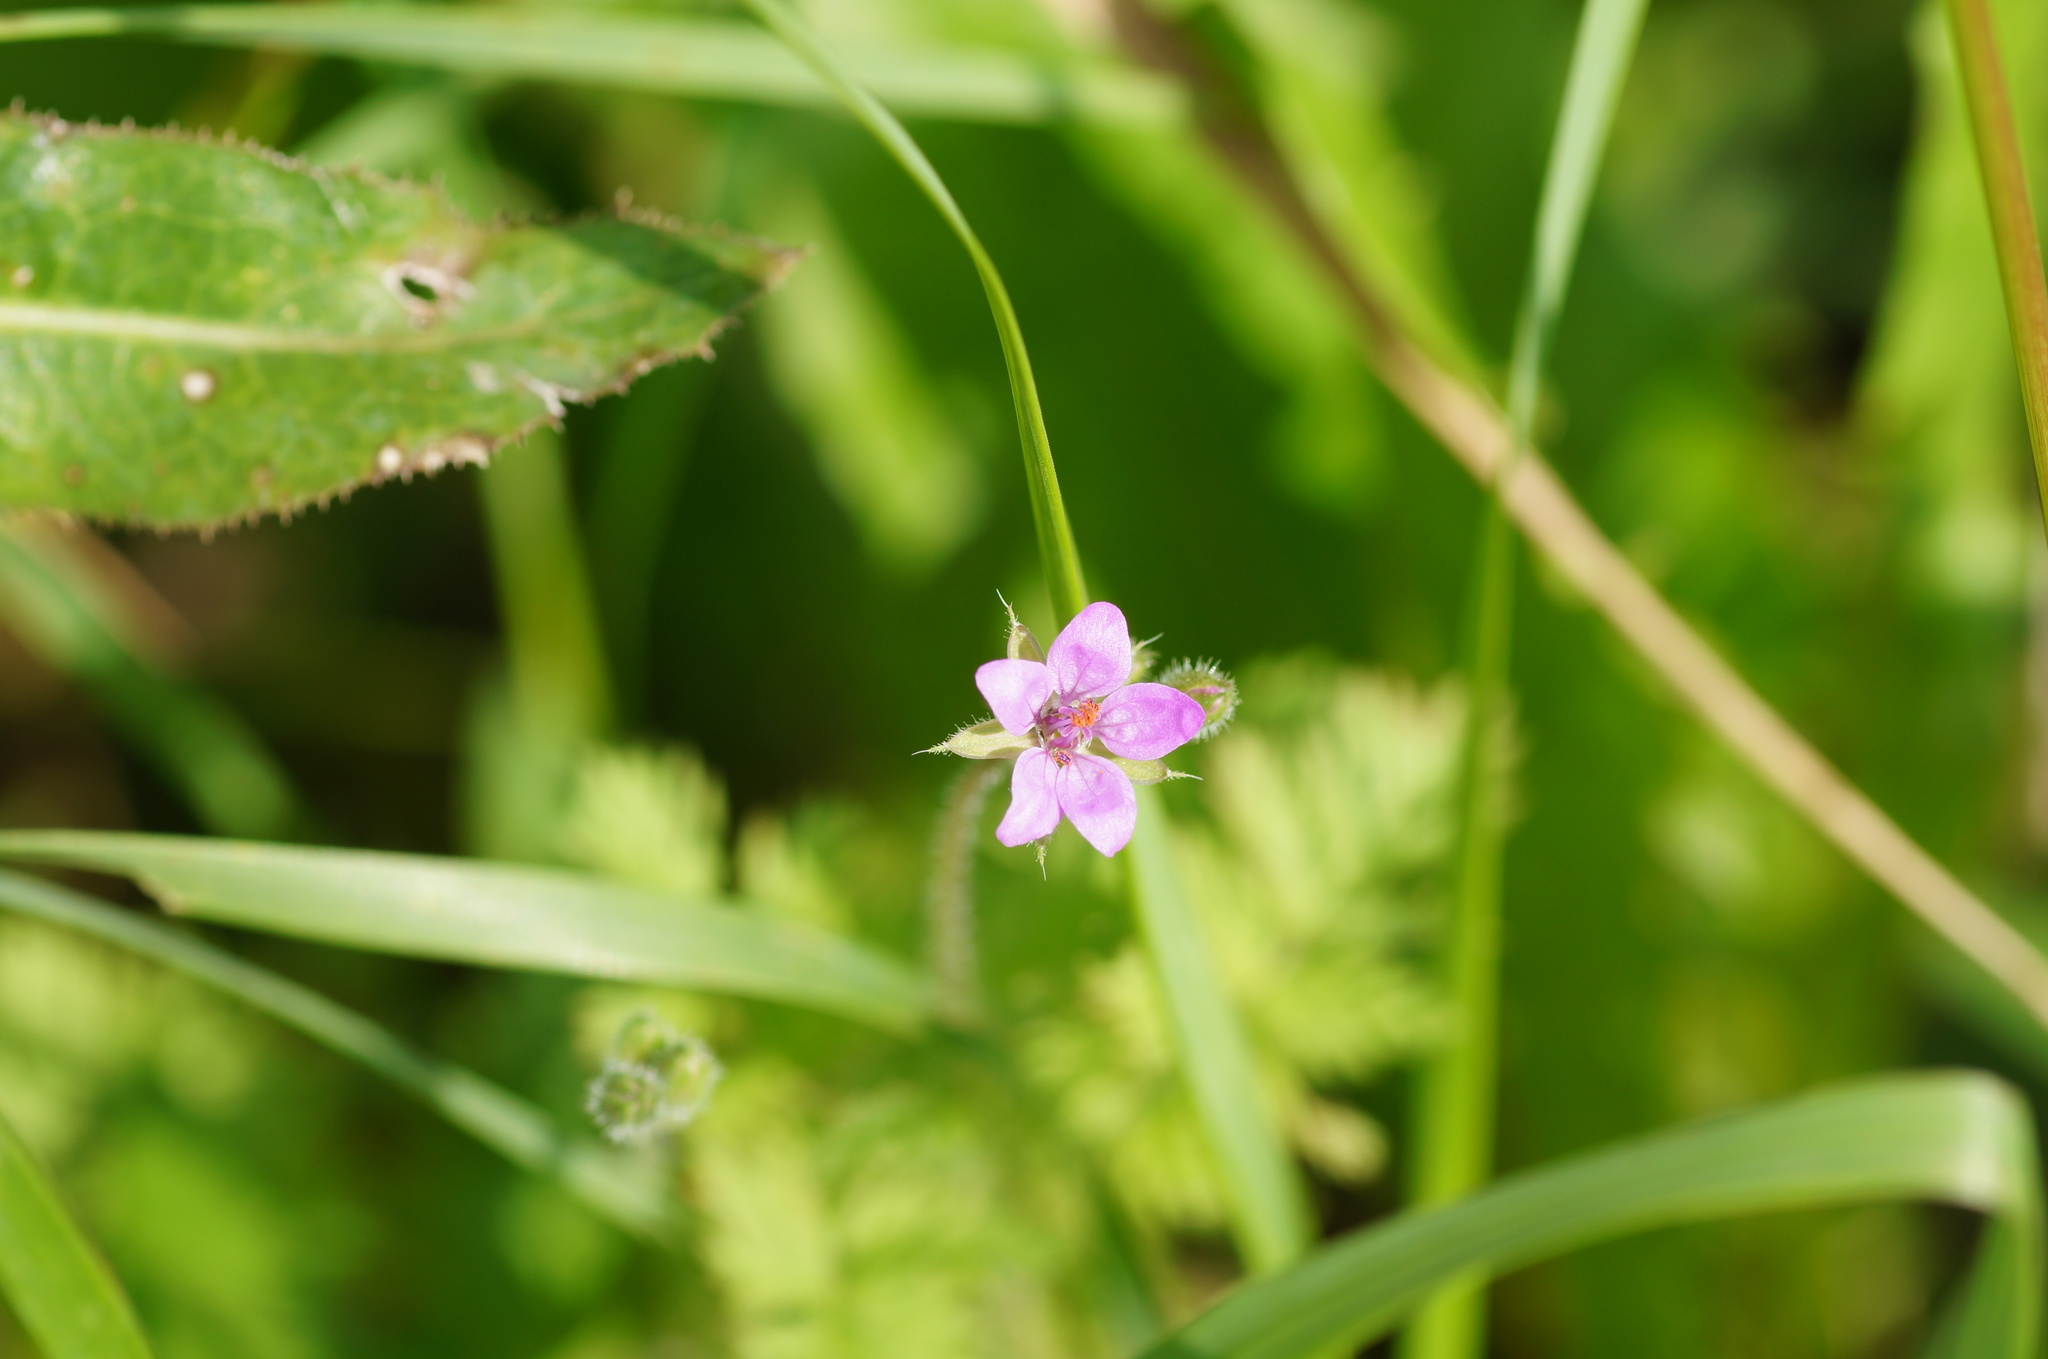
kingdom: Plantae
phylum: Tracheophyta
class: Magnoliopsida
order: Geraniales
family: Geraniaceae
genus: Erodium
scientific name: Erodium cicutarium
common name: Common stork's-bill
